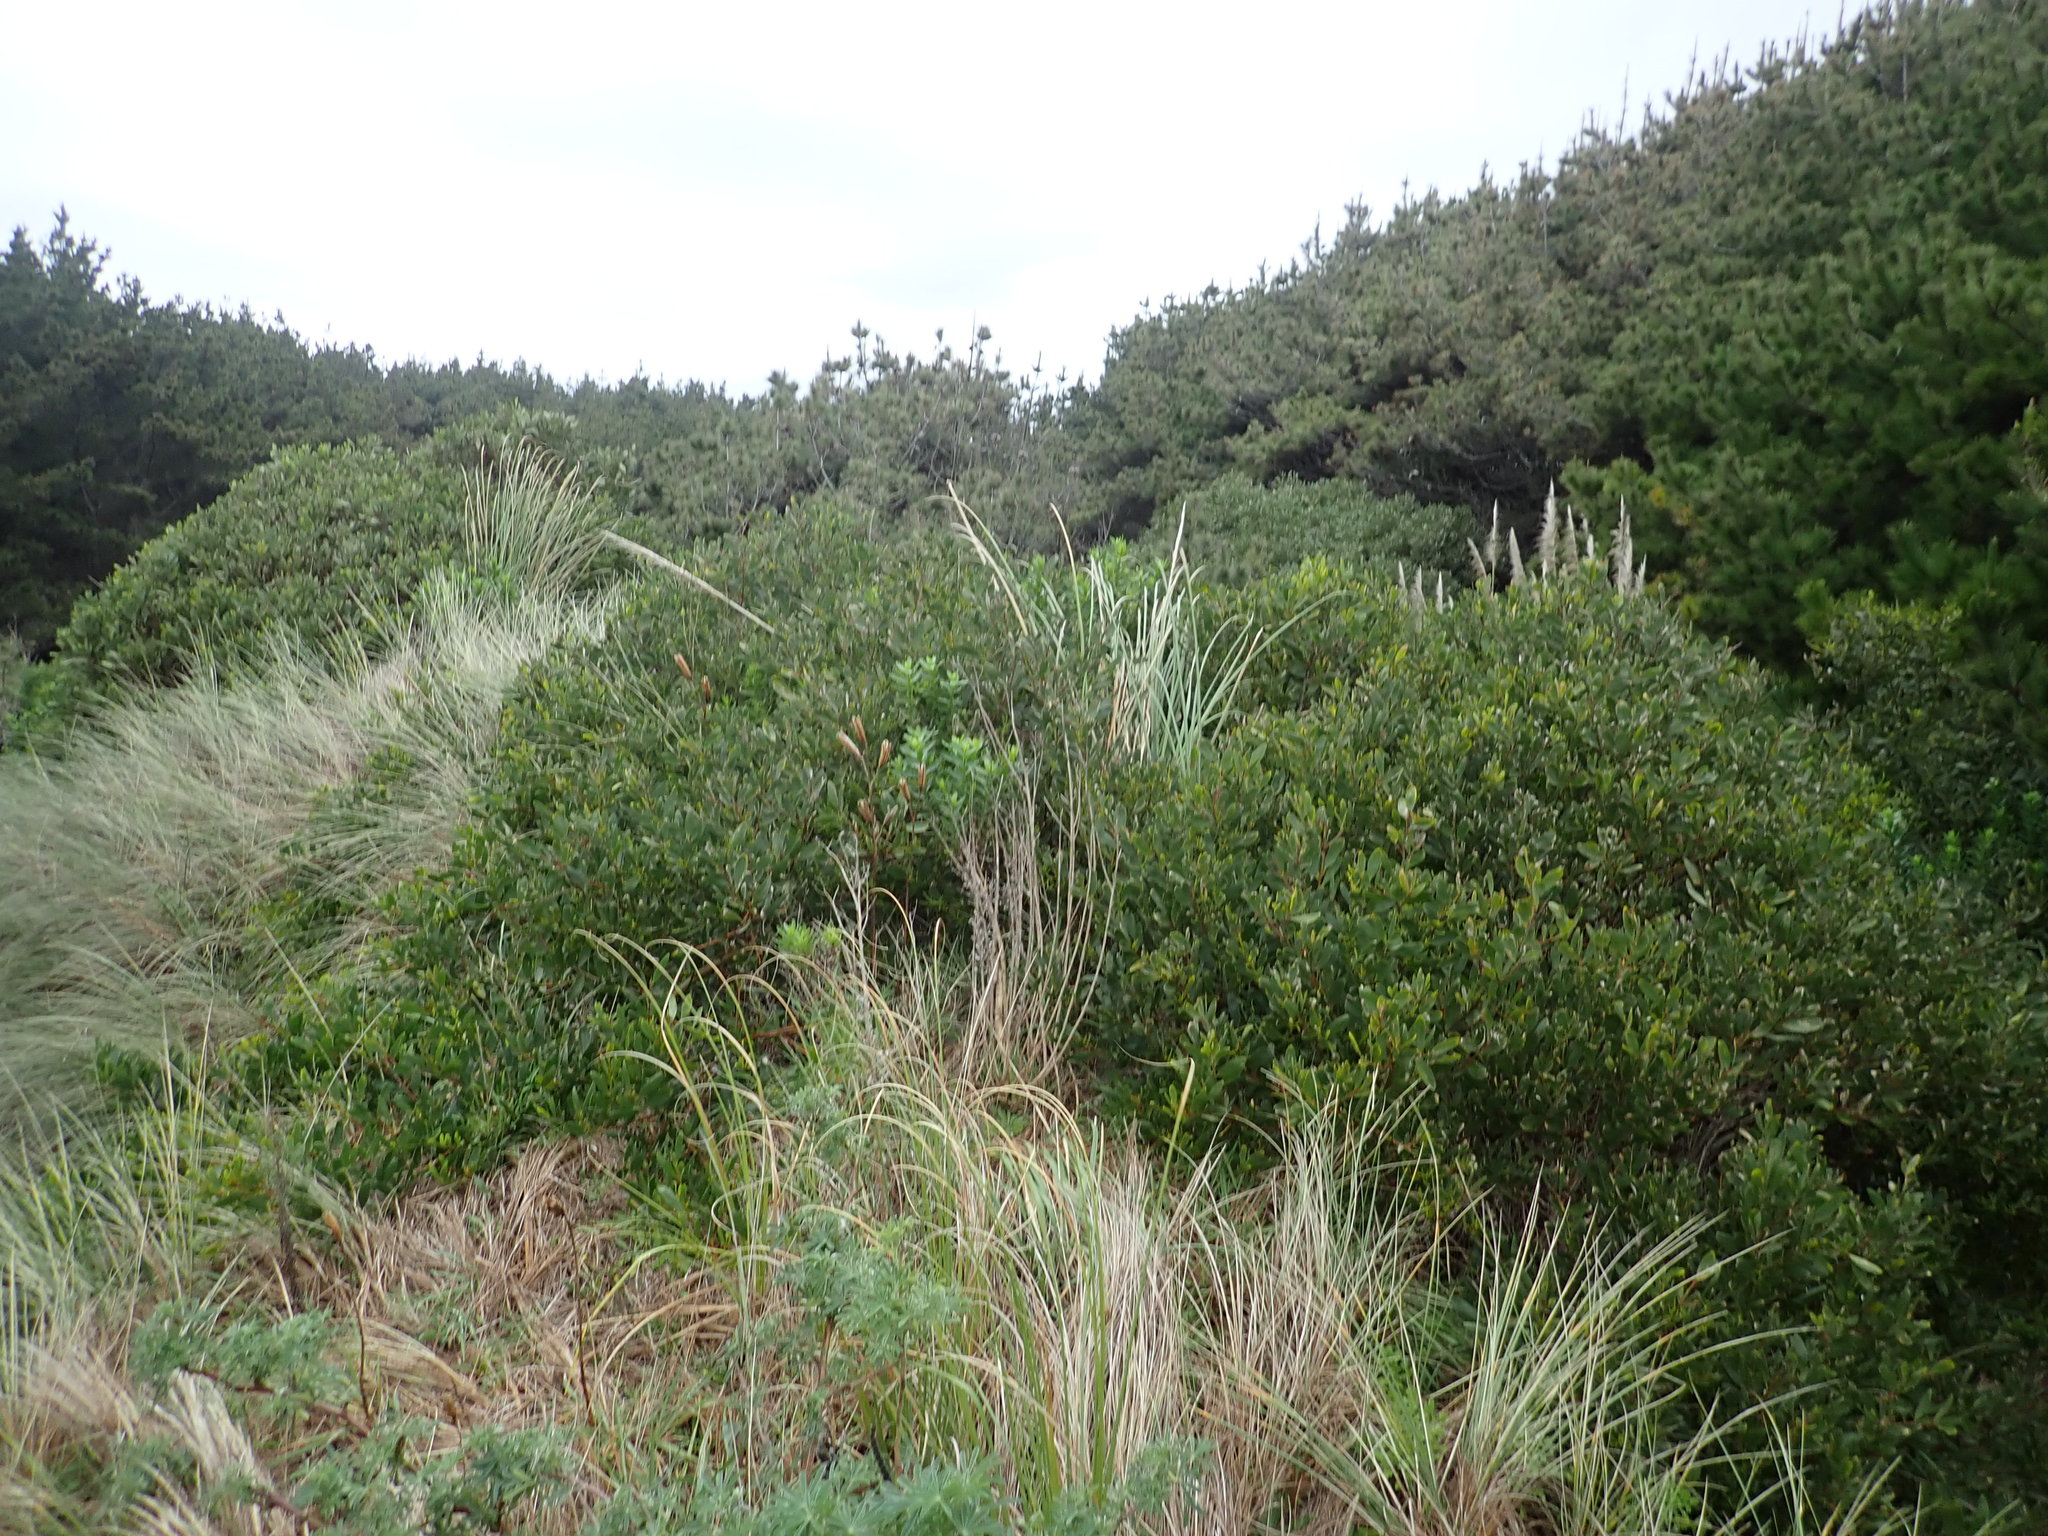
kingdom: Plantae
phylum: Tracheophyta
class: Magnoliopsida
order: Fabales
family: Fabaceae
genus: Acacia
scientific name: Acacia longifolia
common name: Sydney golden wattle
